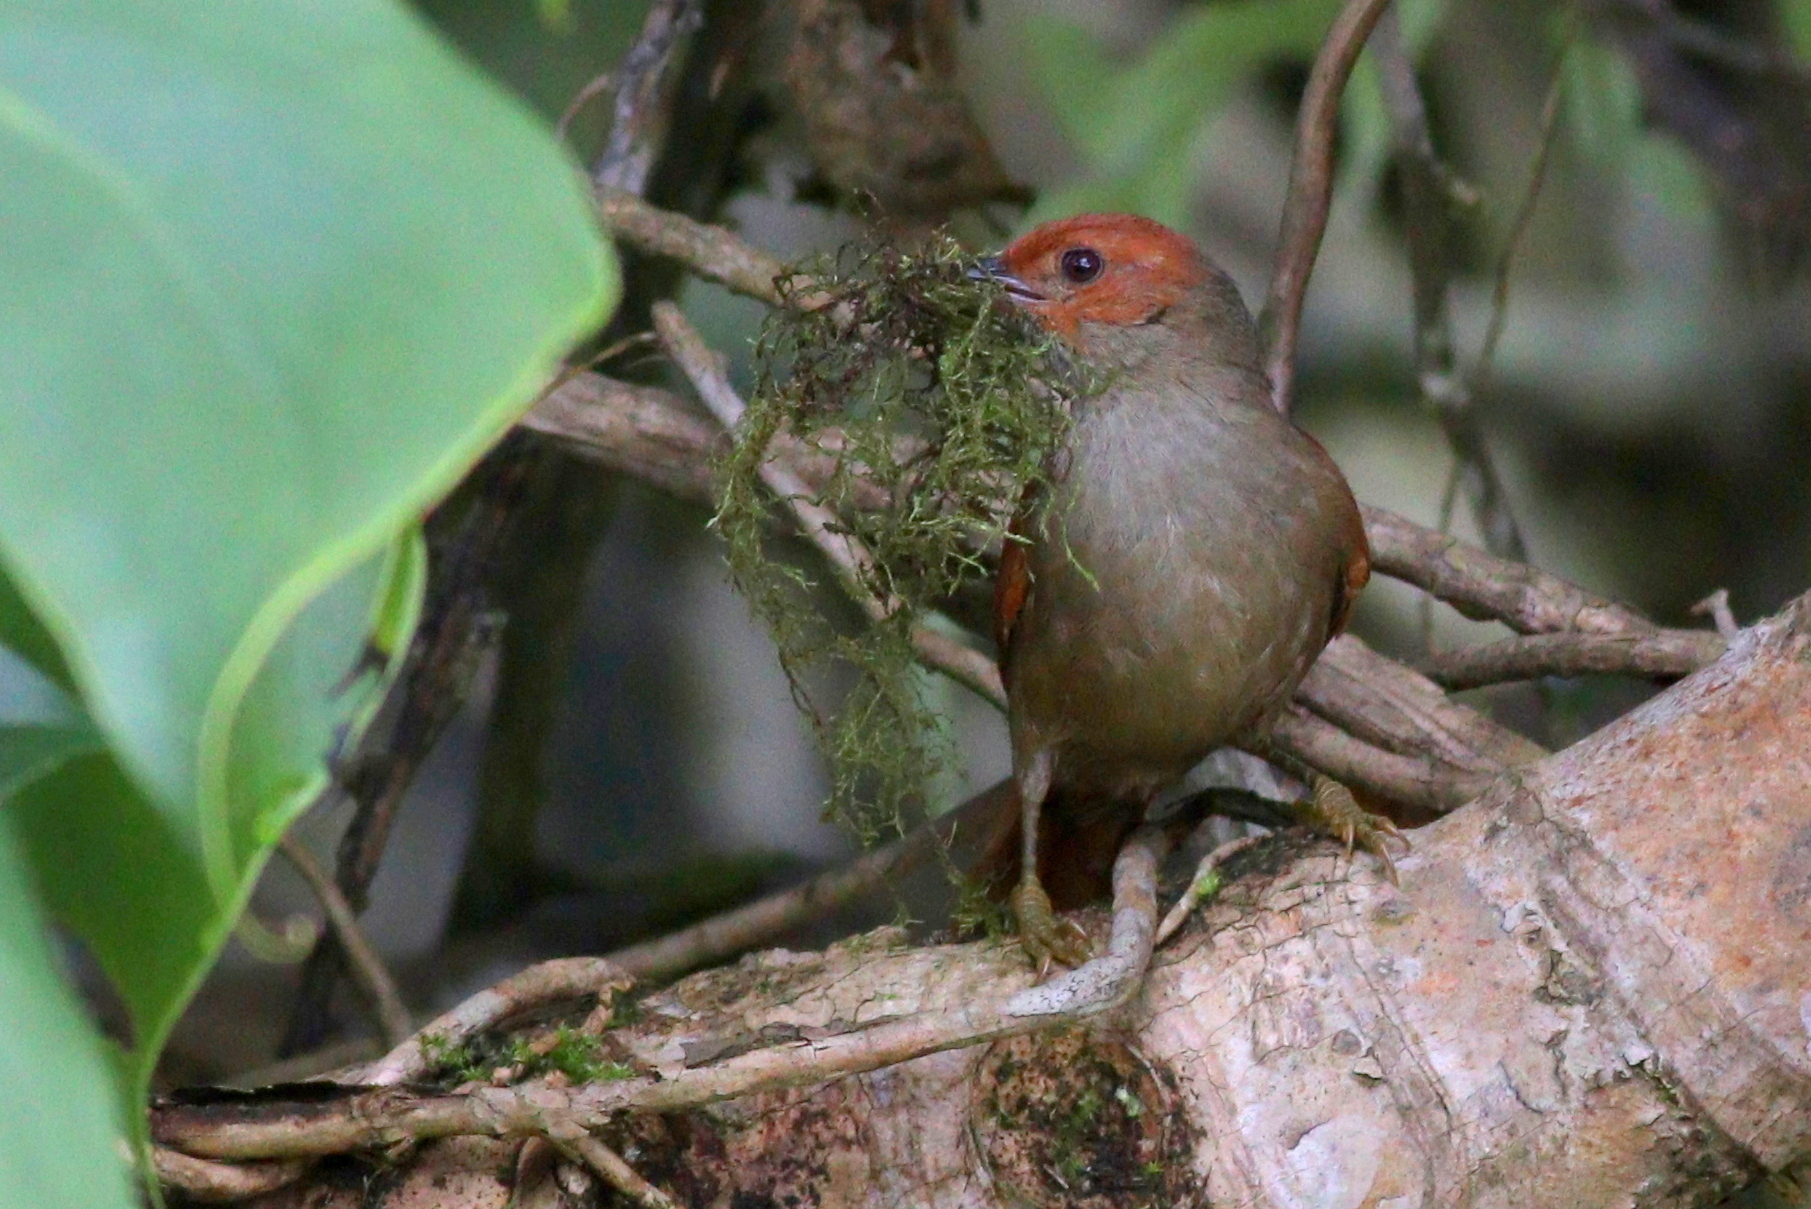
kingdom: Animalia
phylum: Chordata
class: Aves
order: Passeriformes
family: Furnariidae
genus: Cranioleuca
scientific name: Cranioleuca erythrops
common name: Red-faced spinetail
